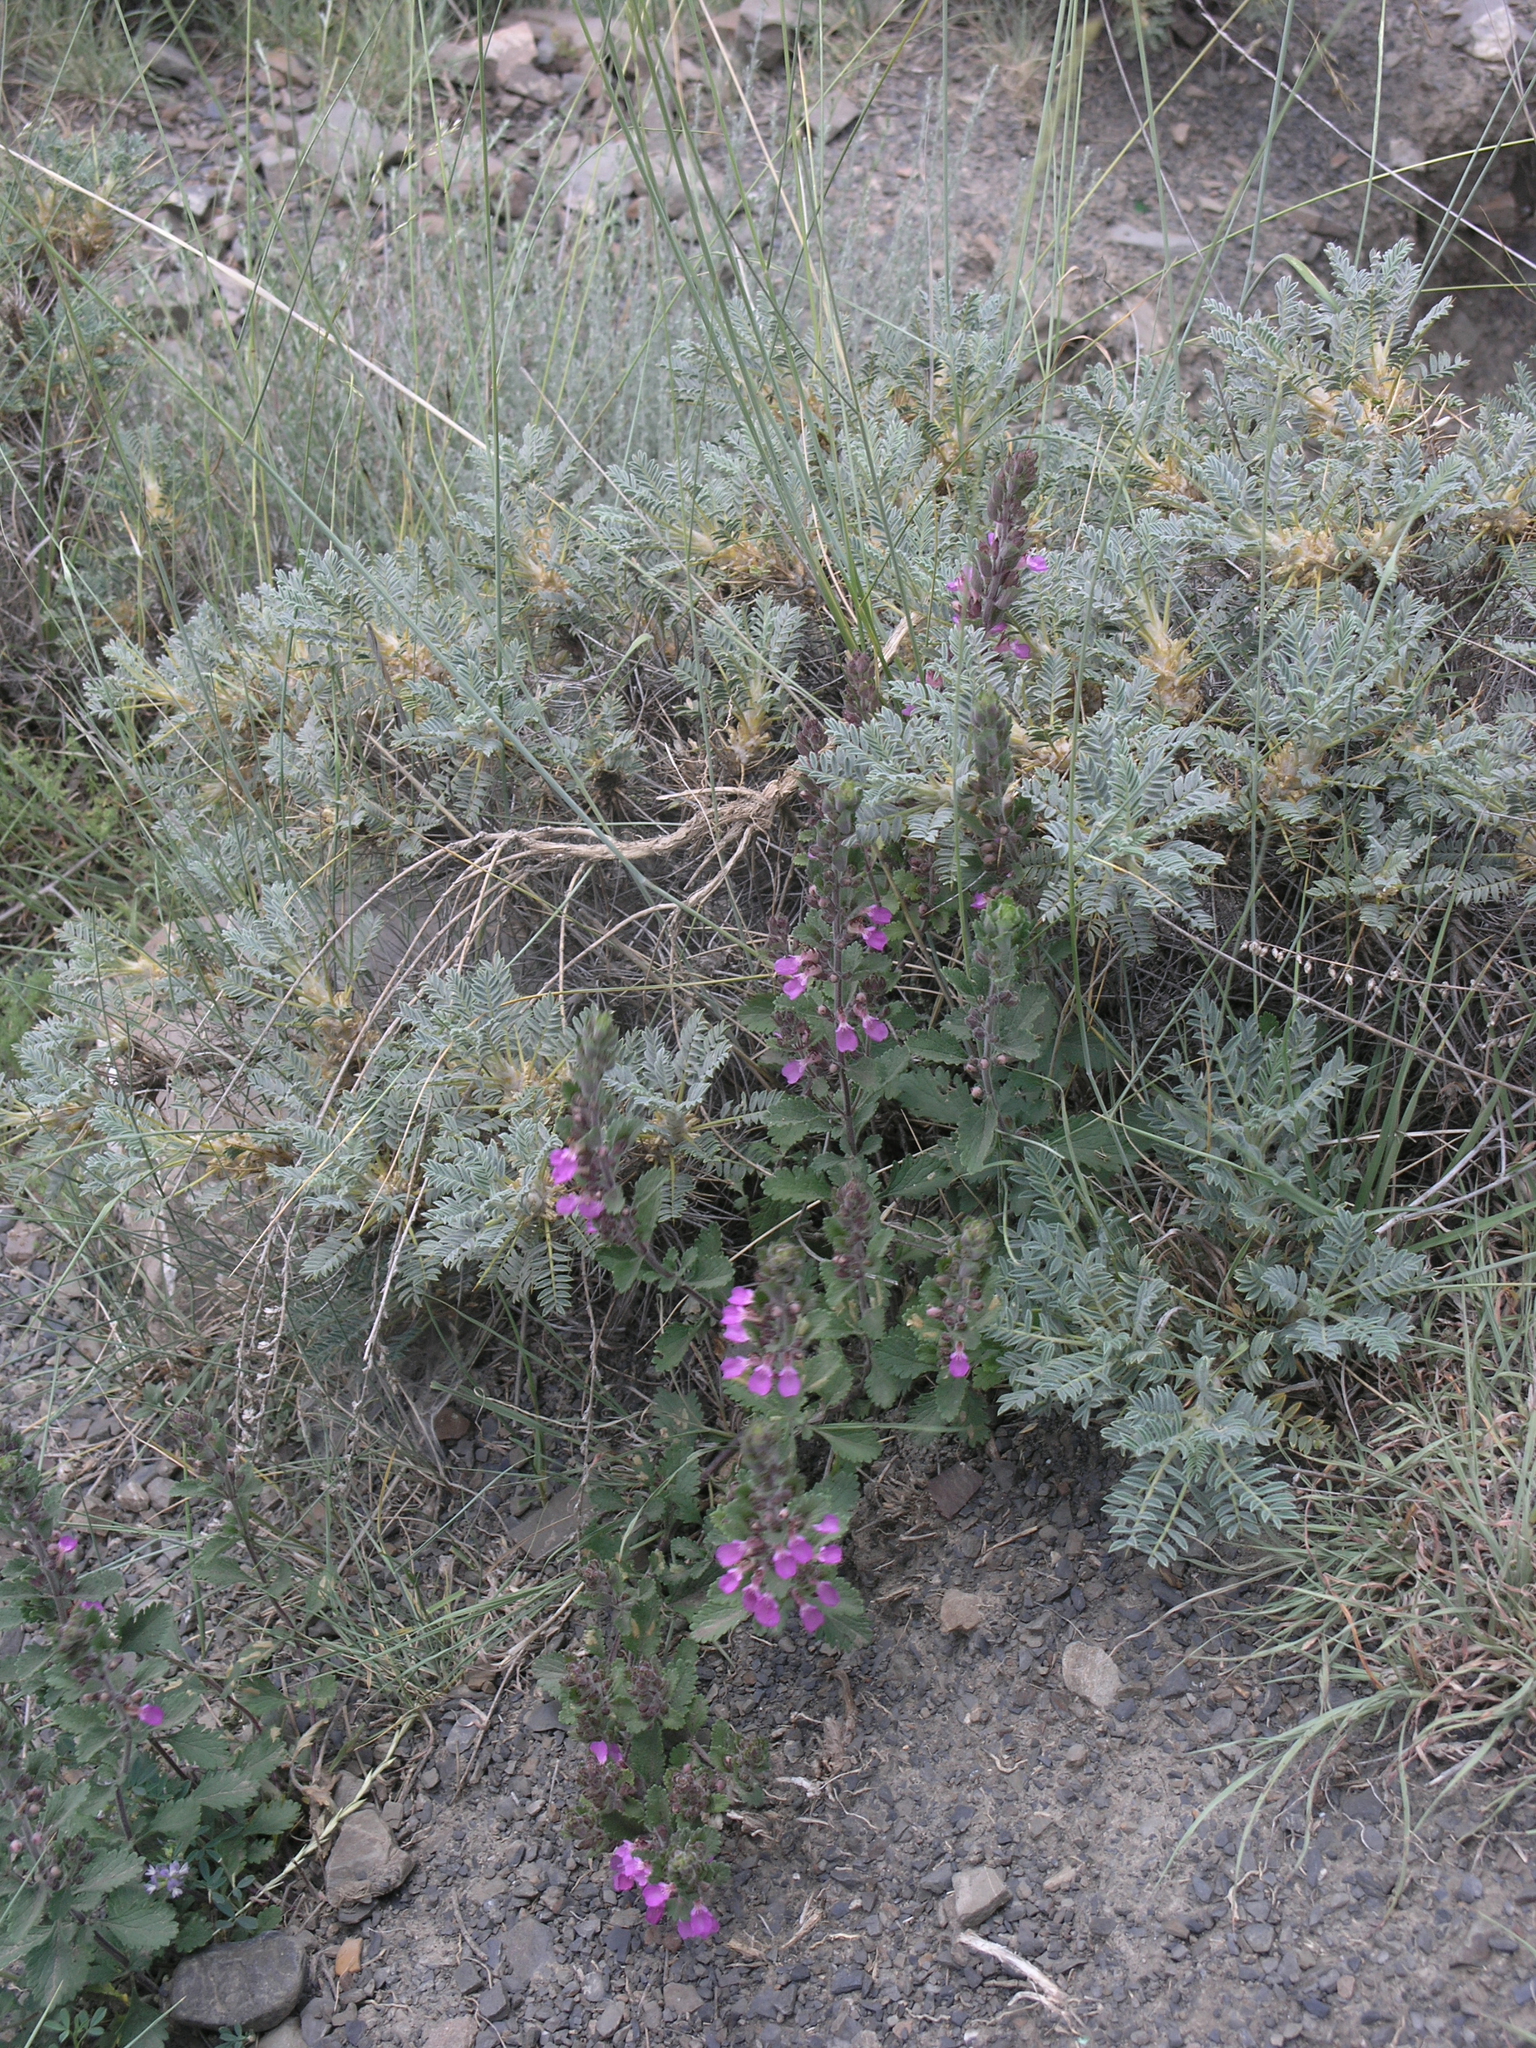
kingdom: Plantae
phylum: Tracheophyta
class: Magnoliopsida
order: Fabales
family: Fabaceae
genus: Astragalus
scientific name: Astragalus denudatus
